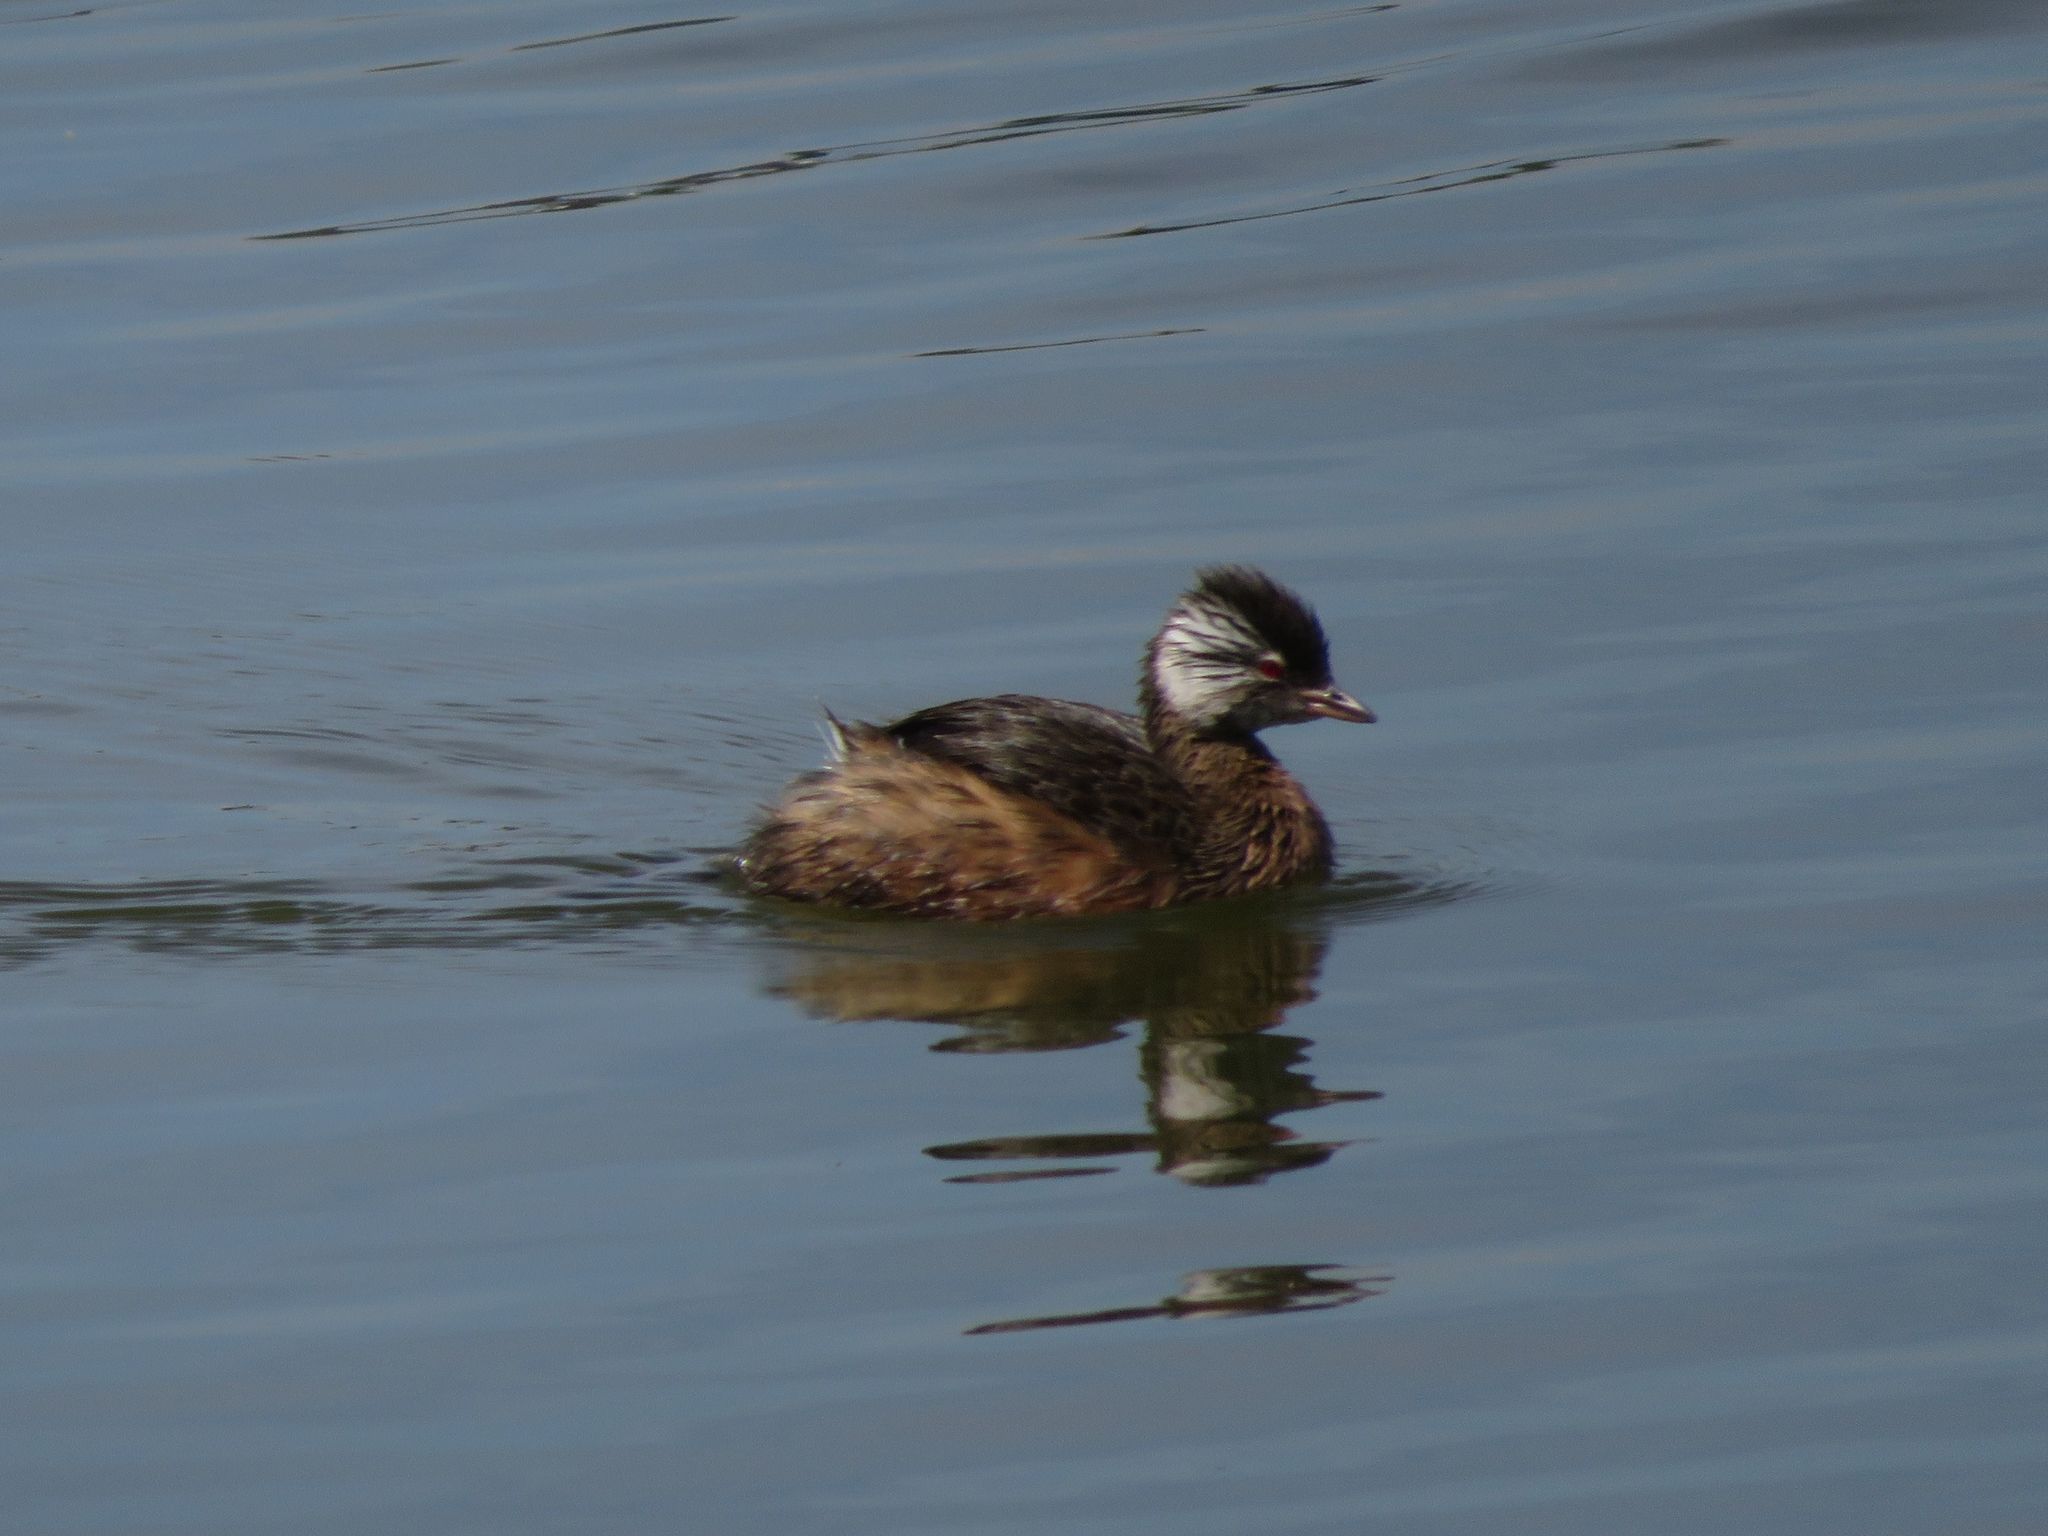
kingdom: Animalia
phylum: Chordata
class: Aves
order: Podicipediformes
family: Podicipedidae
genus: Rollandia
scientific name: Rollandia rolland
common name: White-tufted grebe
